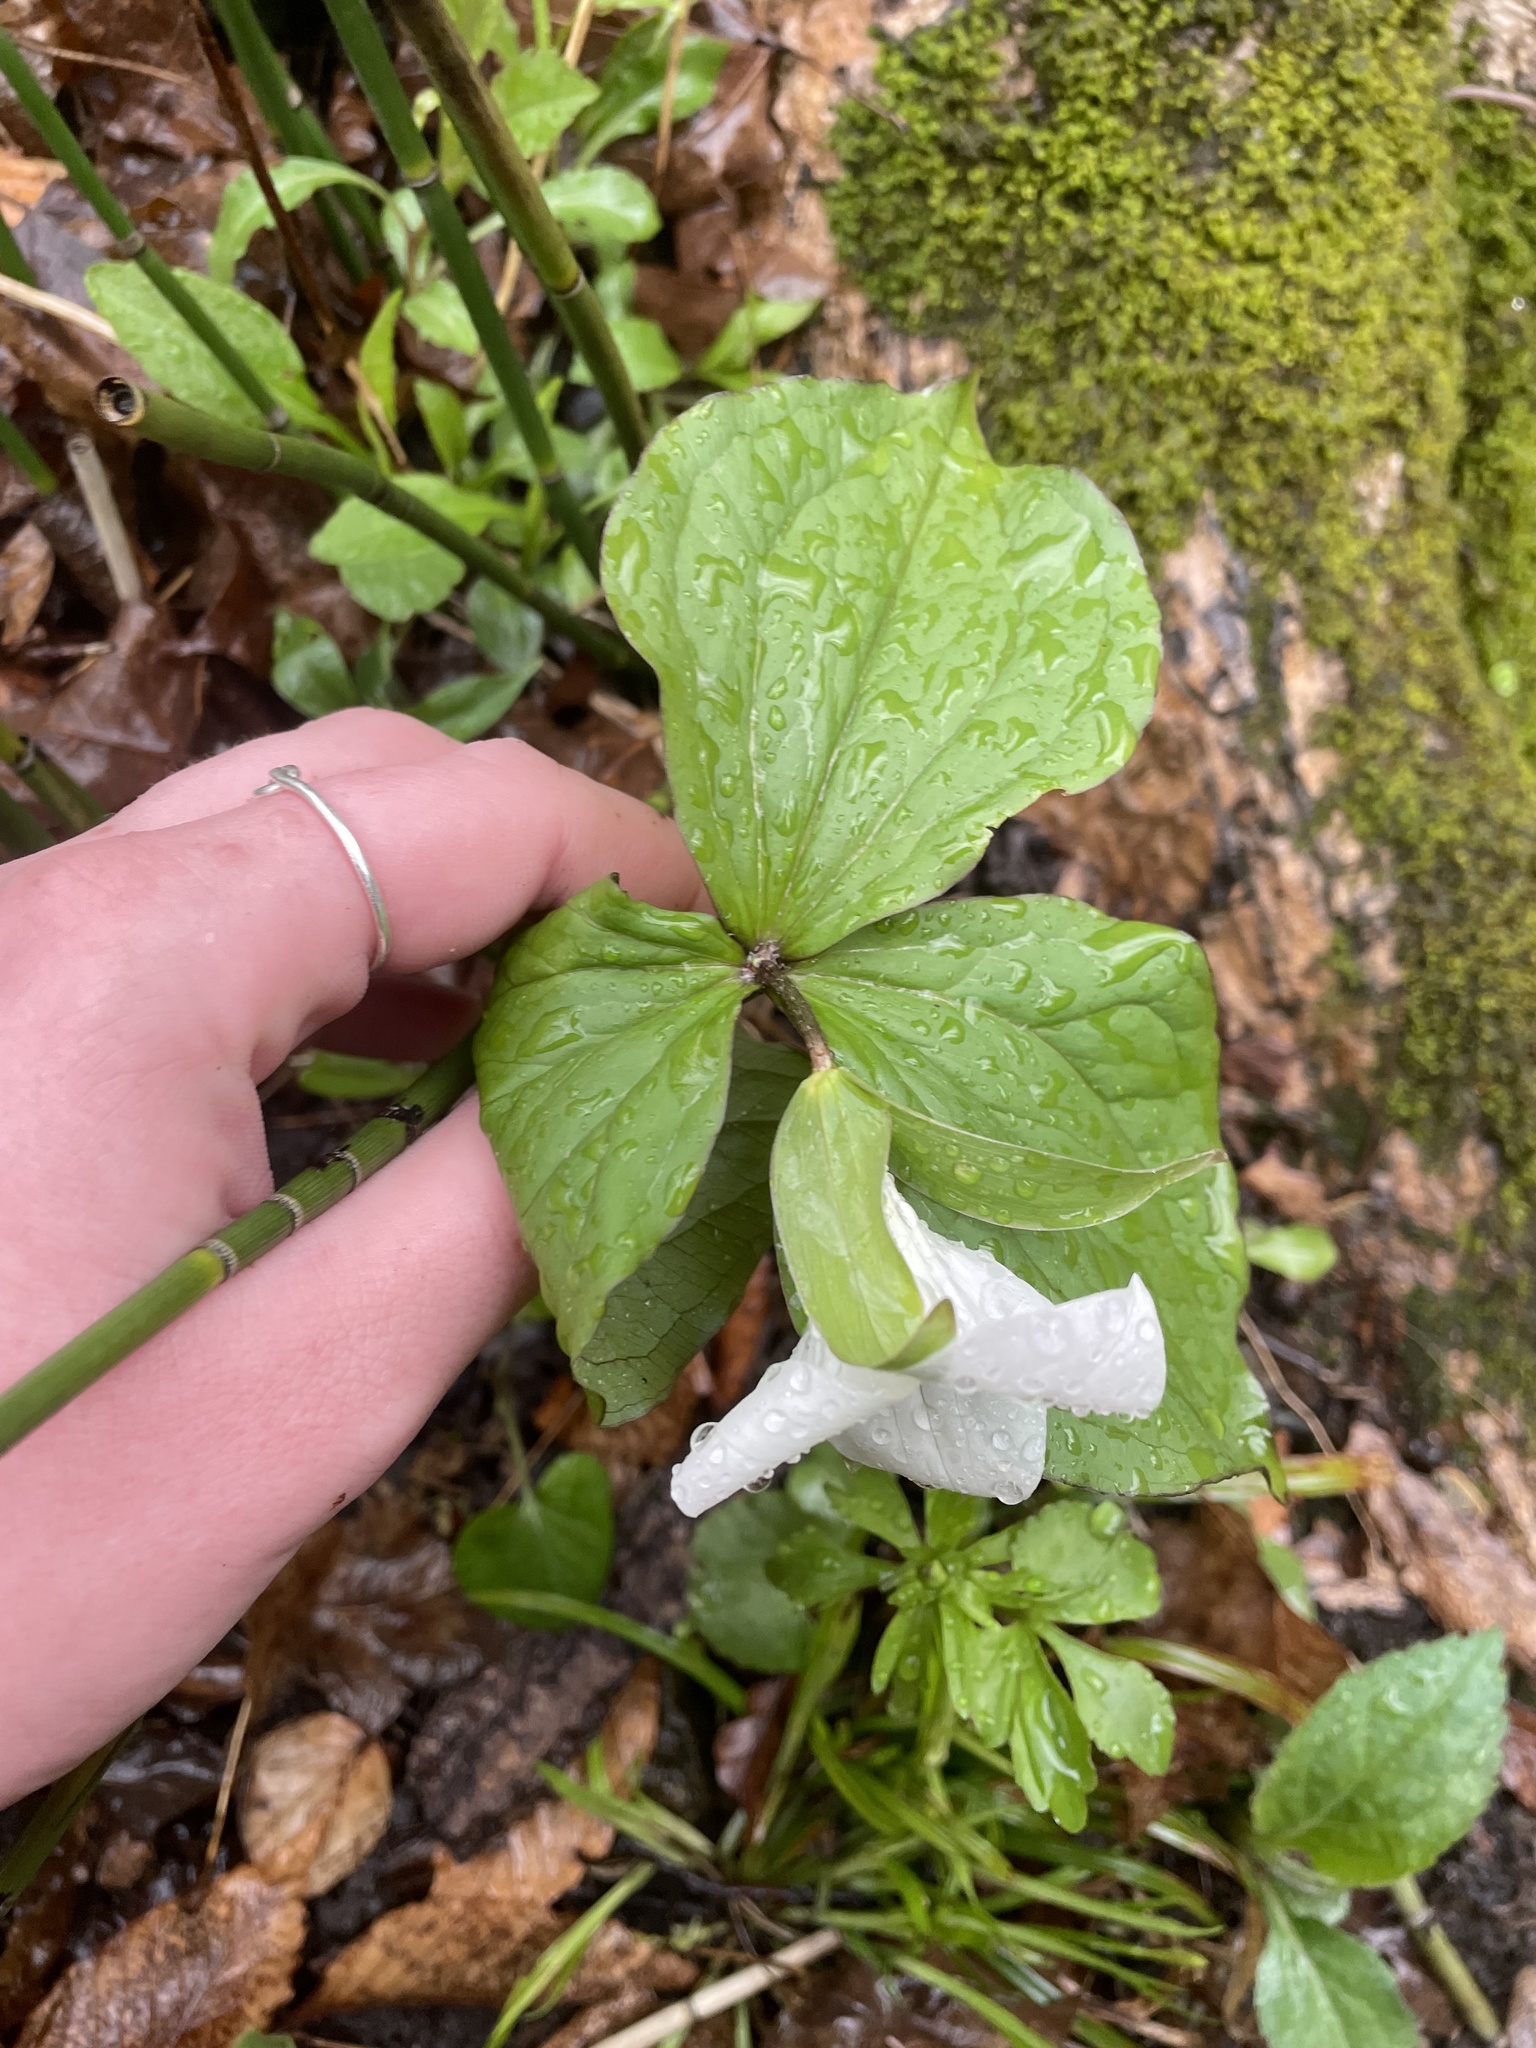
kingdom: Plantae
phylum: Tracheophyta
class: Liliopsida
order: Liliales
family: Melanthiaceae
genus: Trillium
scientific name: Trillium grandiflorum
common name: Great white trillium
